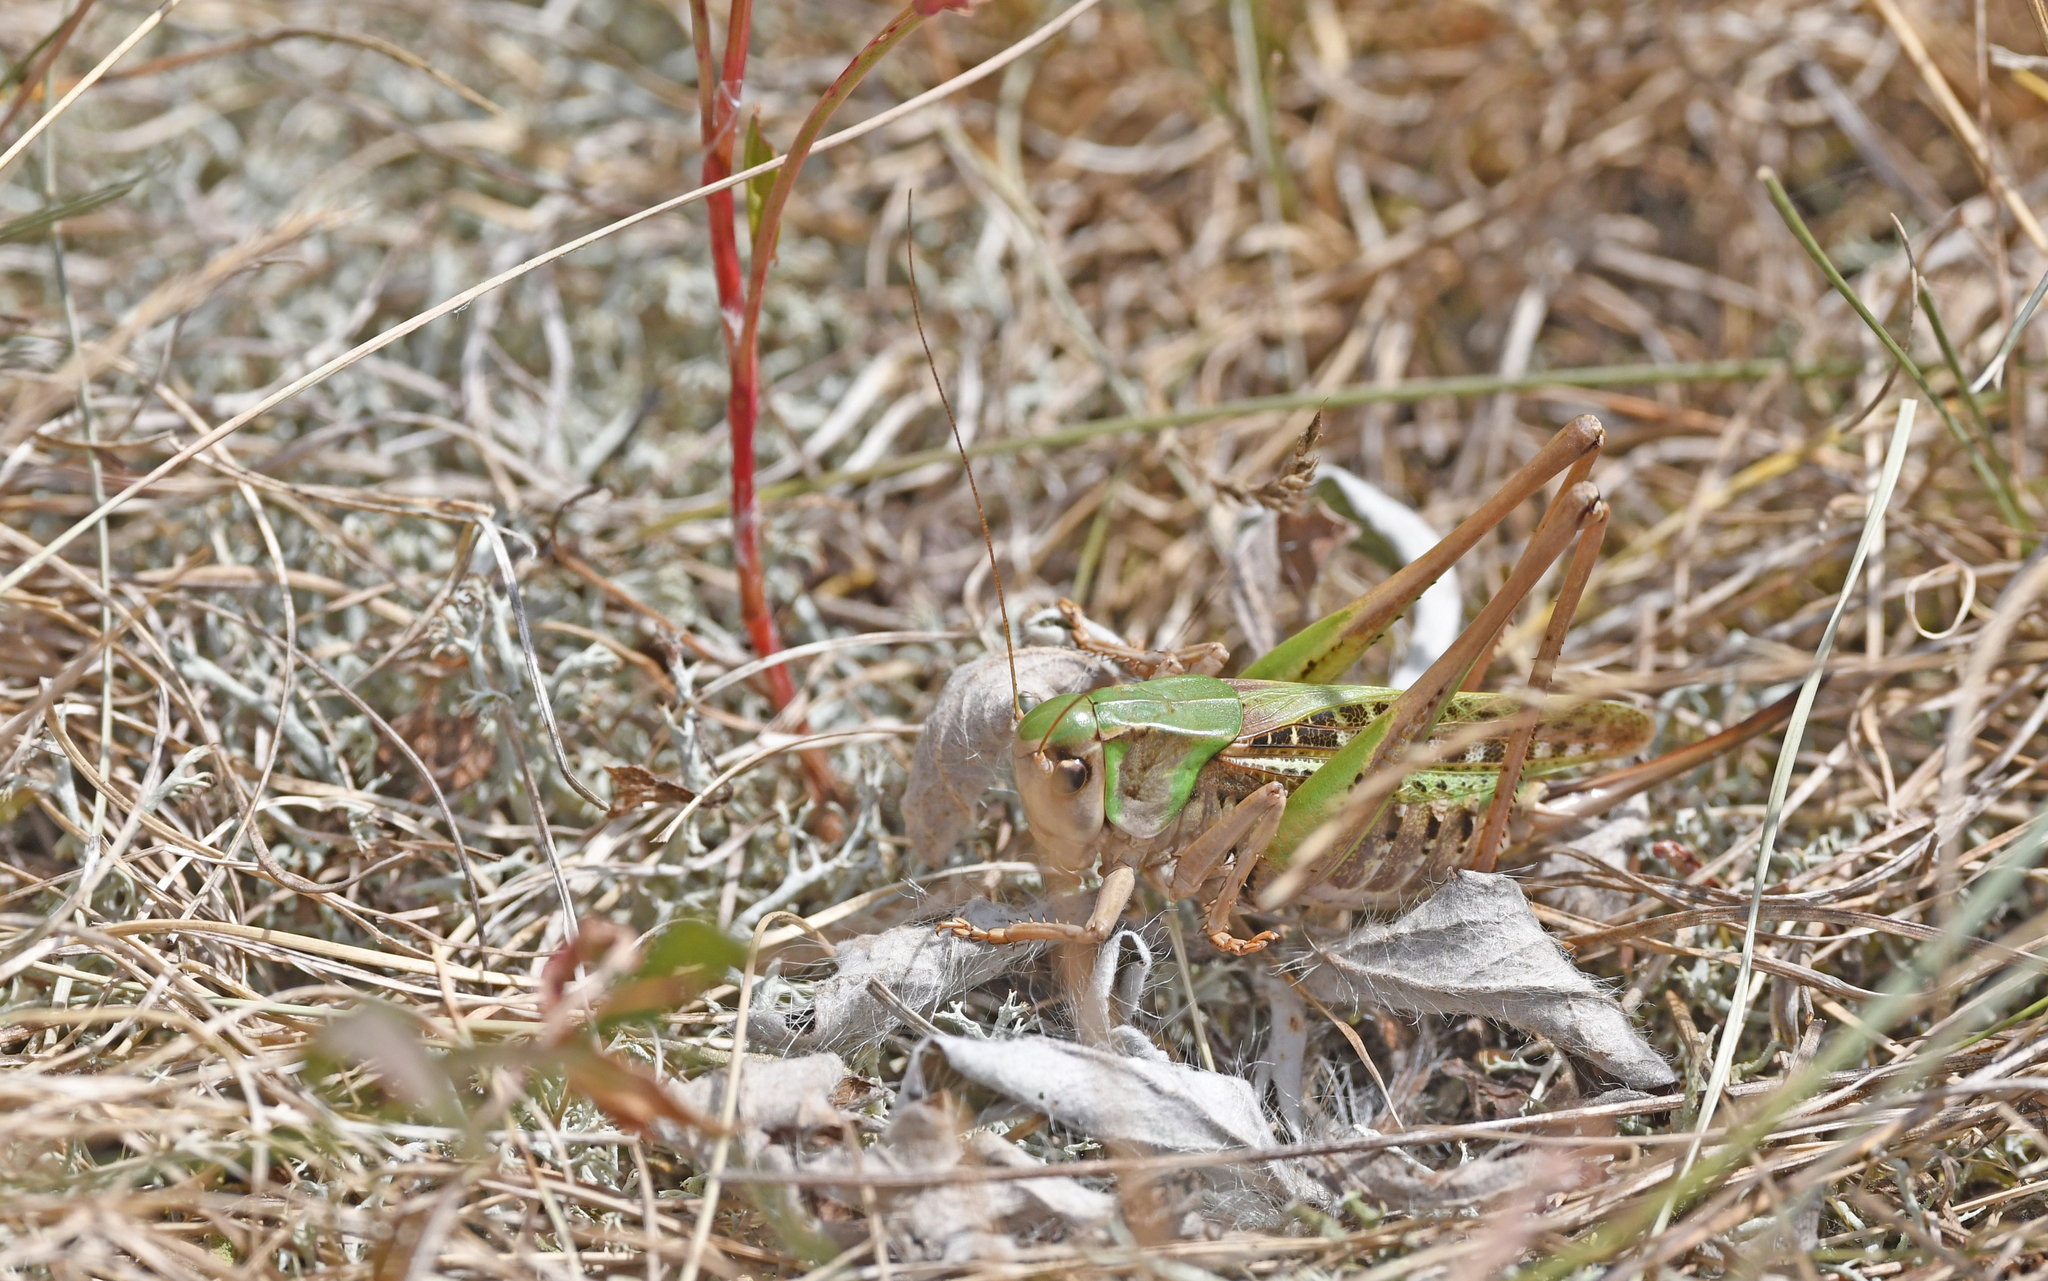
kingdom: Animalia
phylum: Arthropoda
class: Insecta
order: Orthoptera
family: Tettigoniidae
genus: Decticus
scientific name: Decticus verrucivorus
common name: Wart-biter
